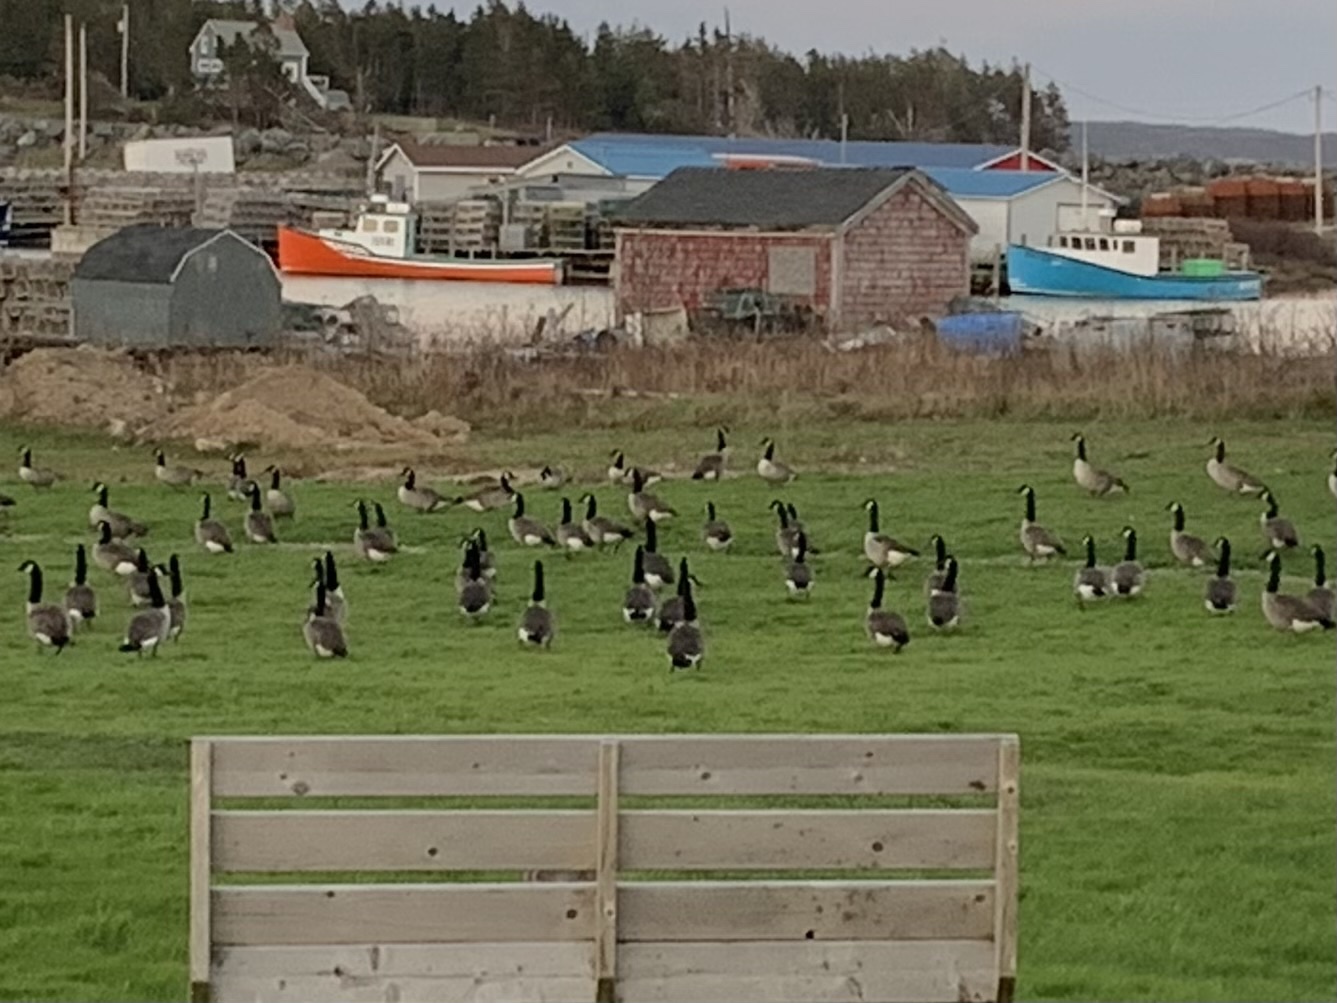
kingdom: Animalia
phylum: Chordata
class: Aves
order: Anseriformes
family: Anatidae
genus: Branta
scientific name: Branta canadensis
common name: Canada goose
